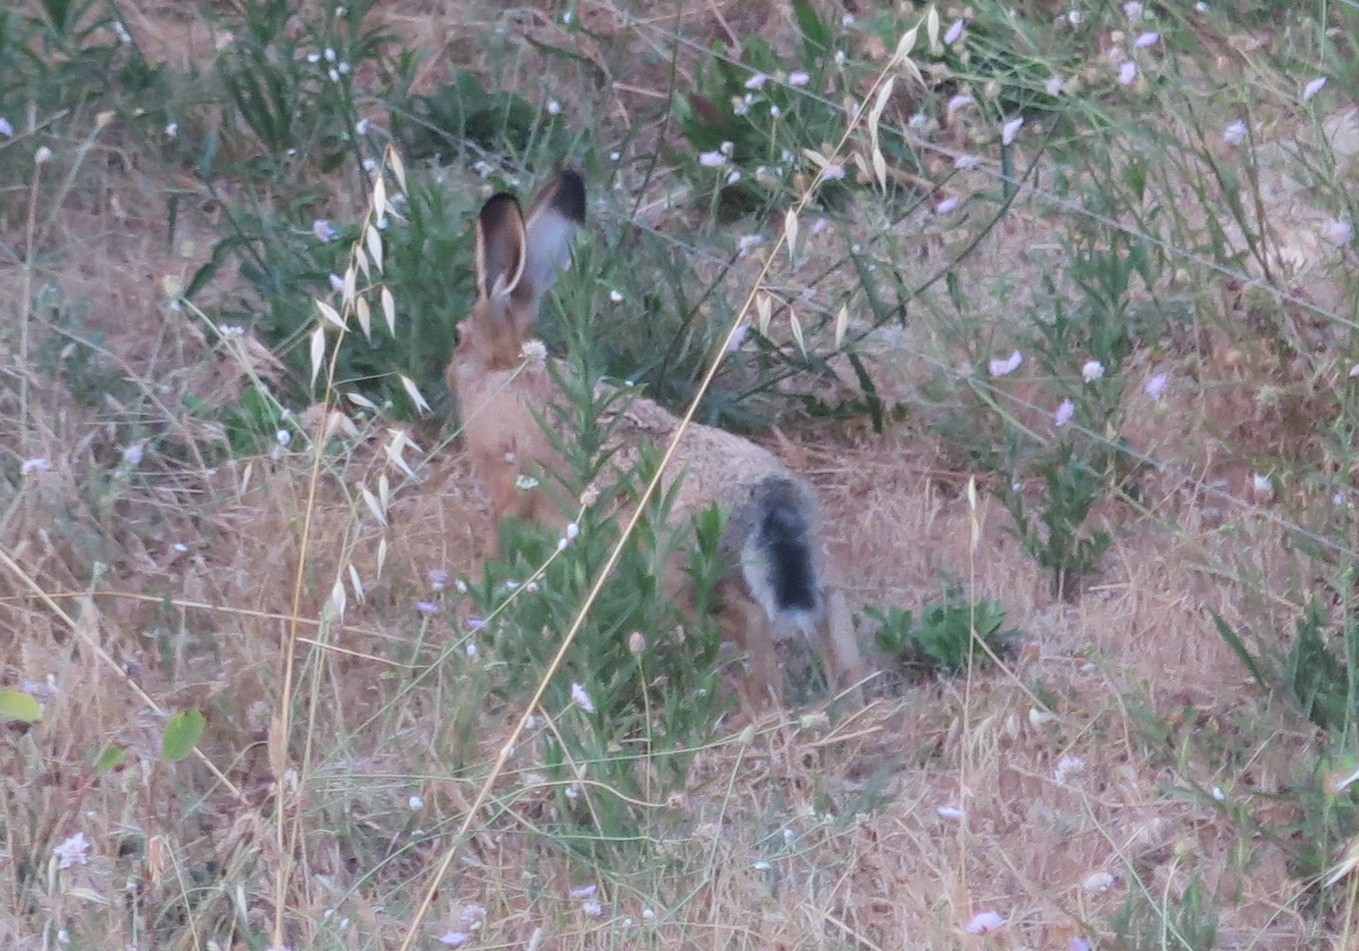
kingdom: Animalia
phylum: Chordata
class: Mammalia
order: Lagomorpha
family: Leporidae
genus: Lepus
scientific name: Lepus europaeus
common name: European hare
